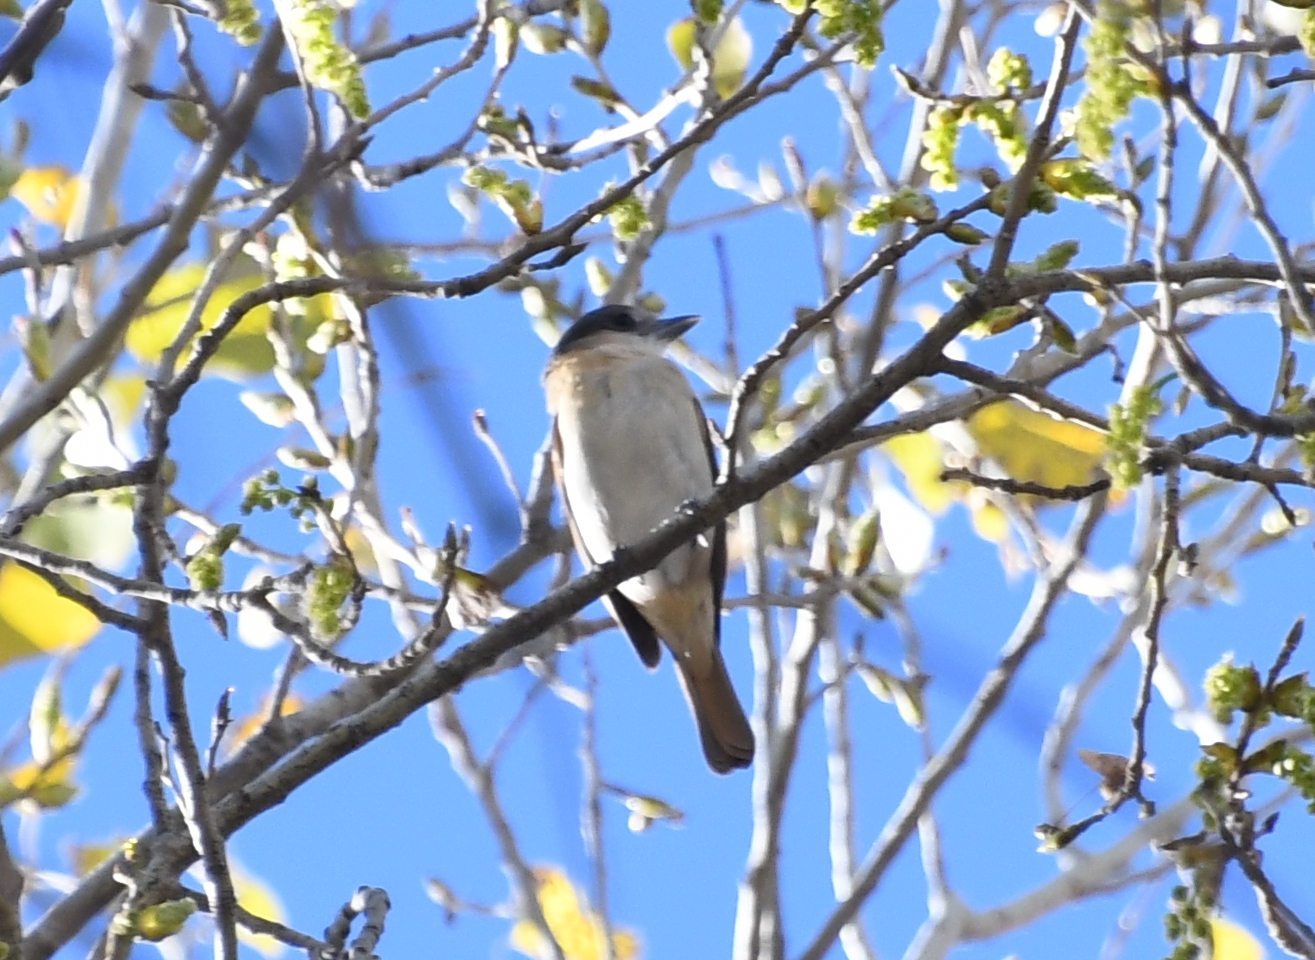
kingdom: Animalia
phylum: Chordata
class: Aves
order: Passeriformes
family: Cotingidae
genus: Pachyramphus
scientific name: Pachyramphus aglaiae
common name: Rose-throated becard
